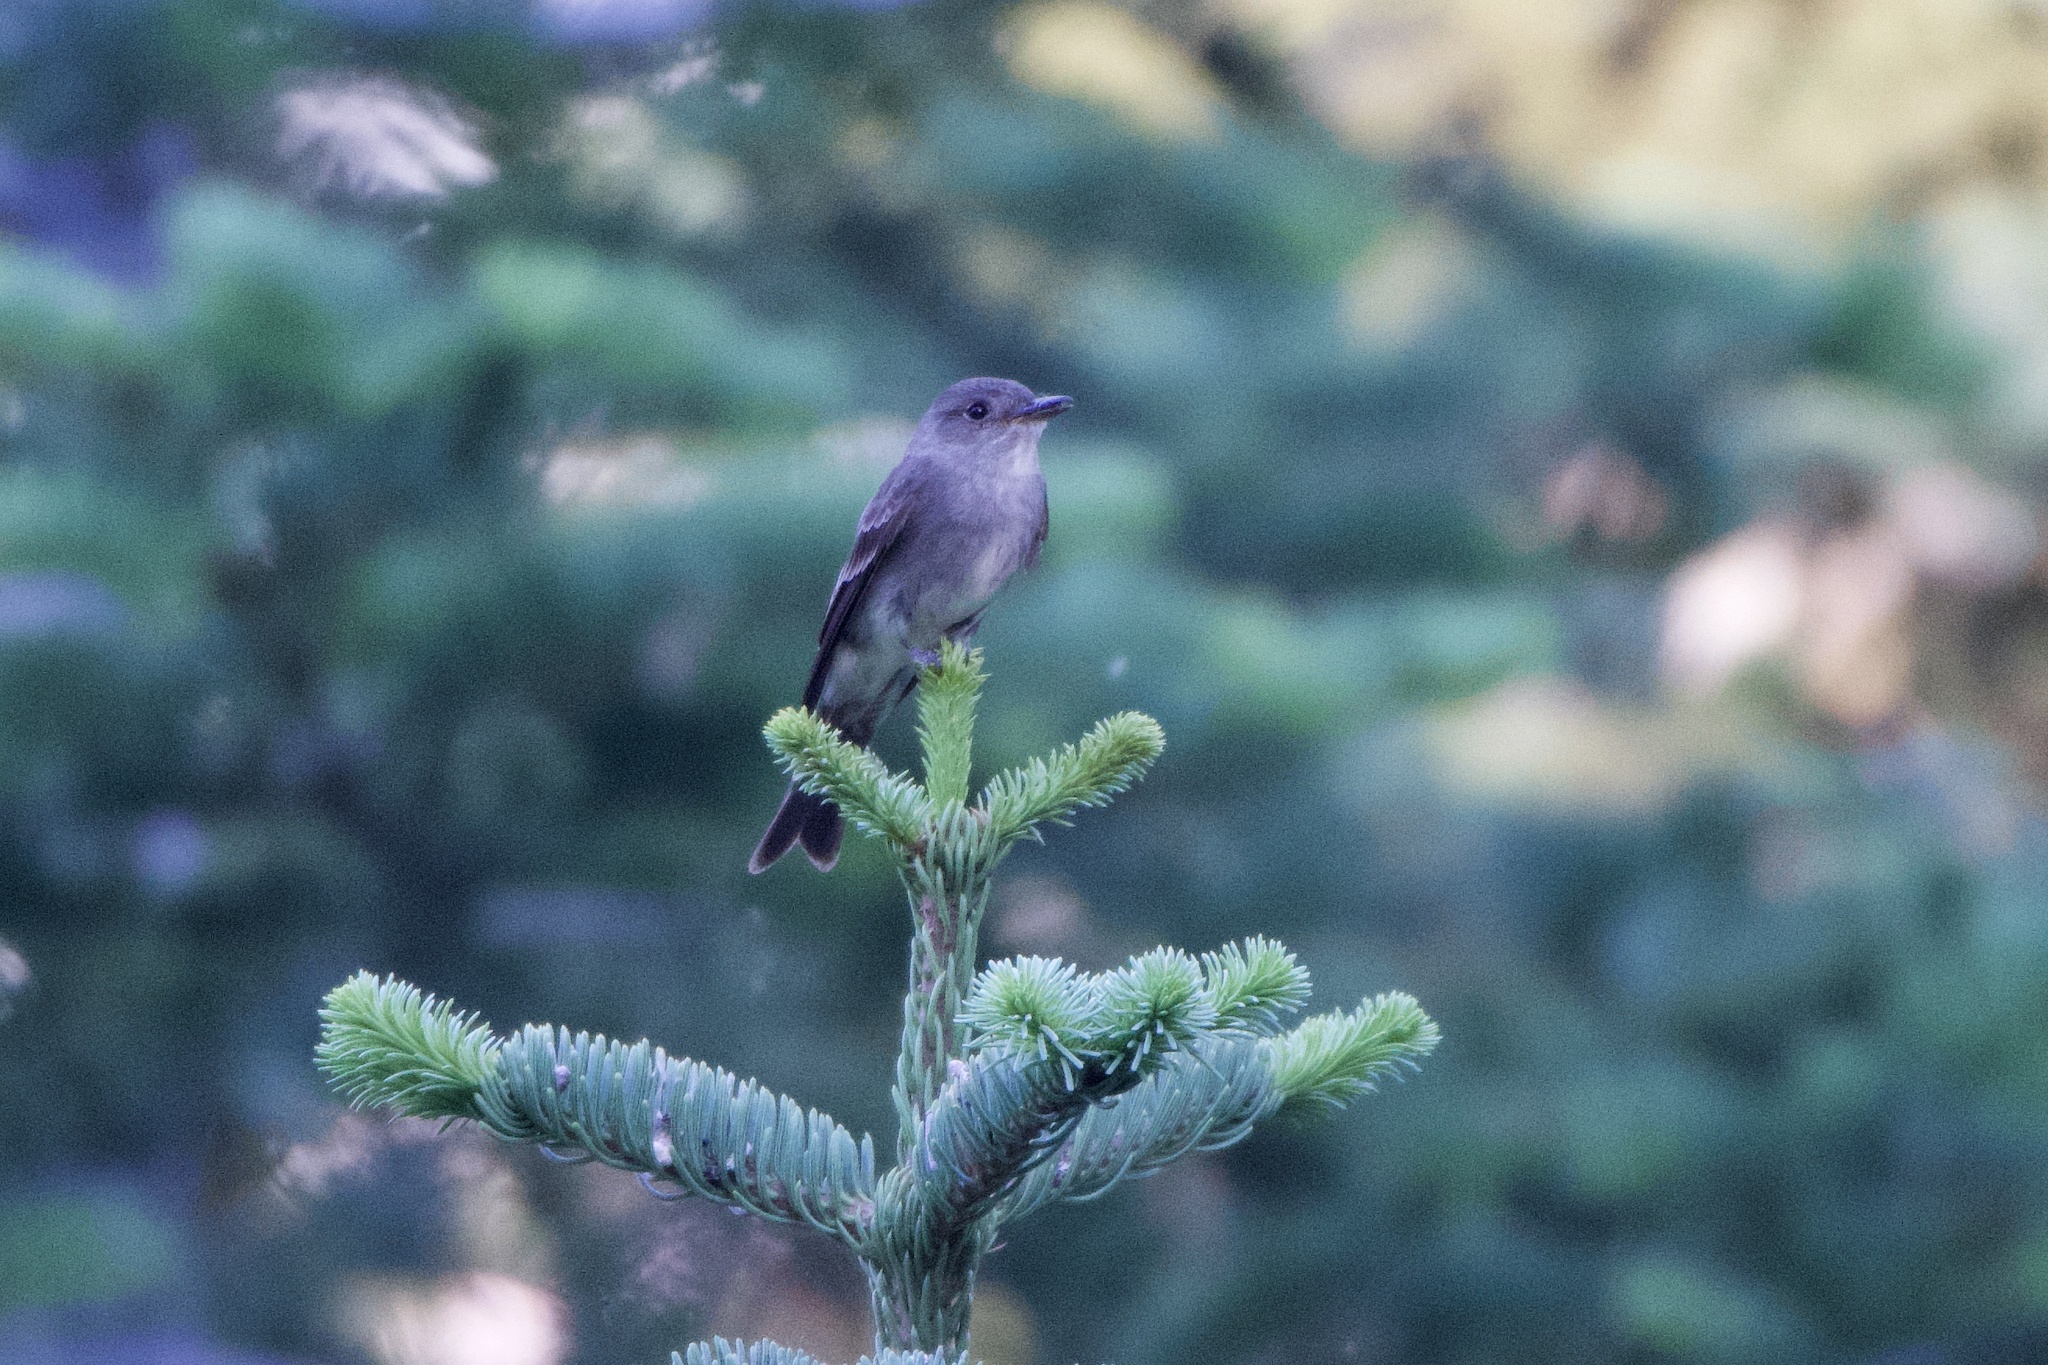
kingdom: Animalia
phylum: Chordata
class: Aves
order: Passeriformes
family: Tyrannidae
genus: Contopus
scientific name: Contopus sordidulus
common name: Western wood-pewee
